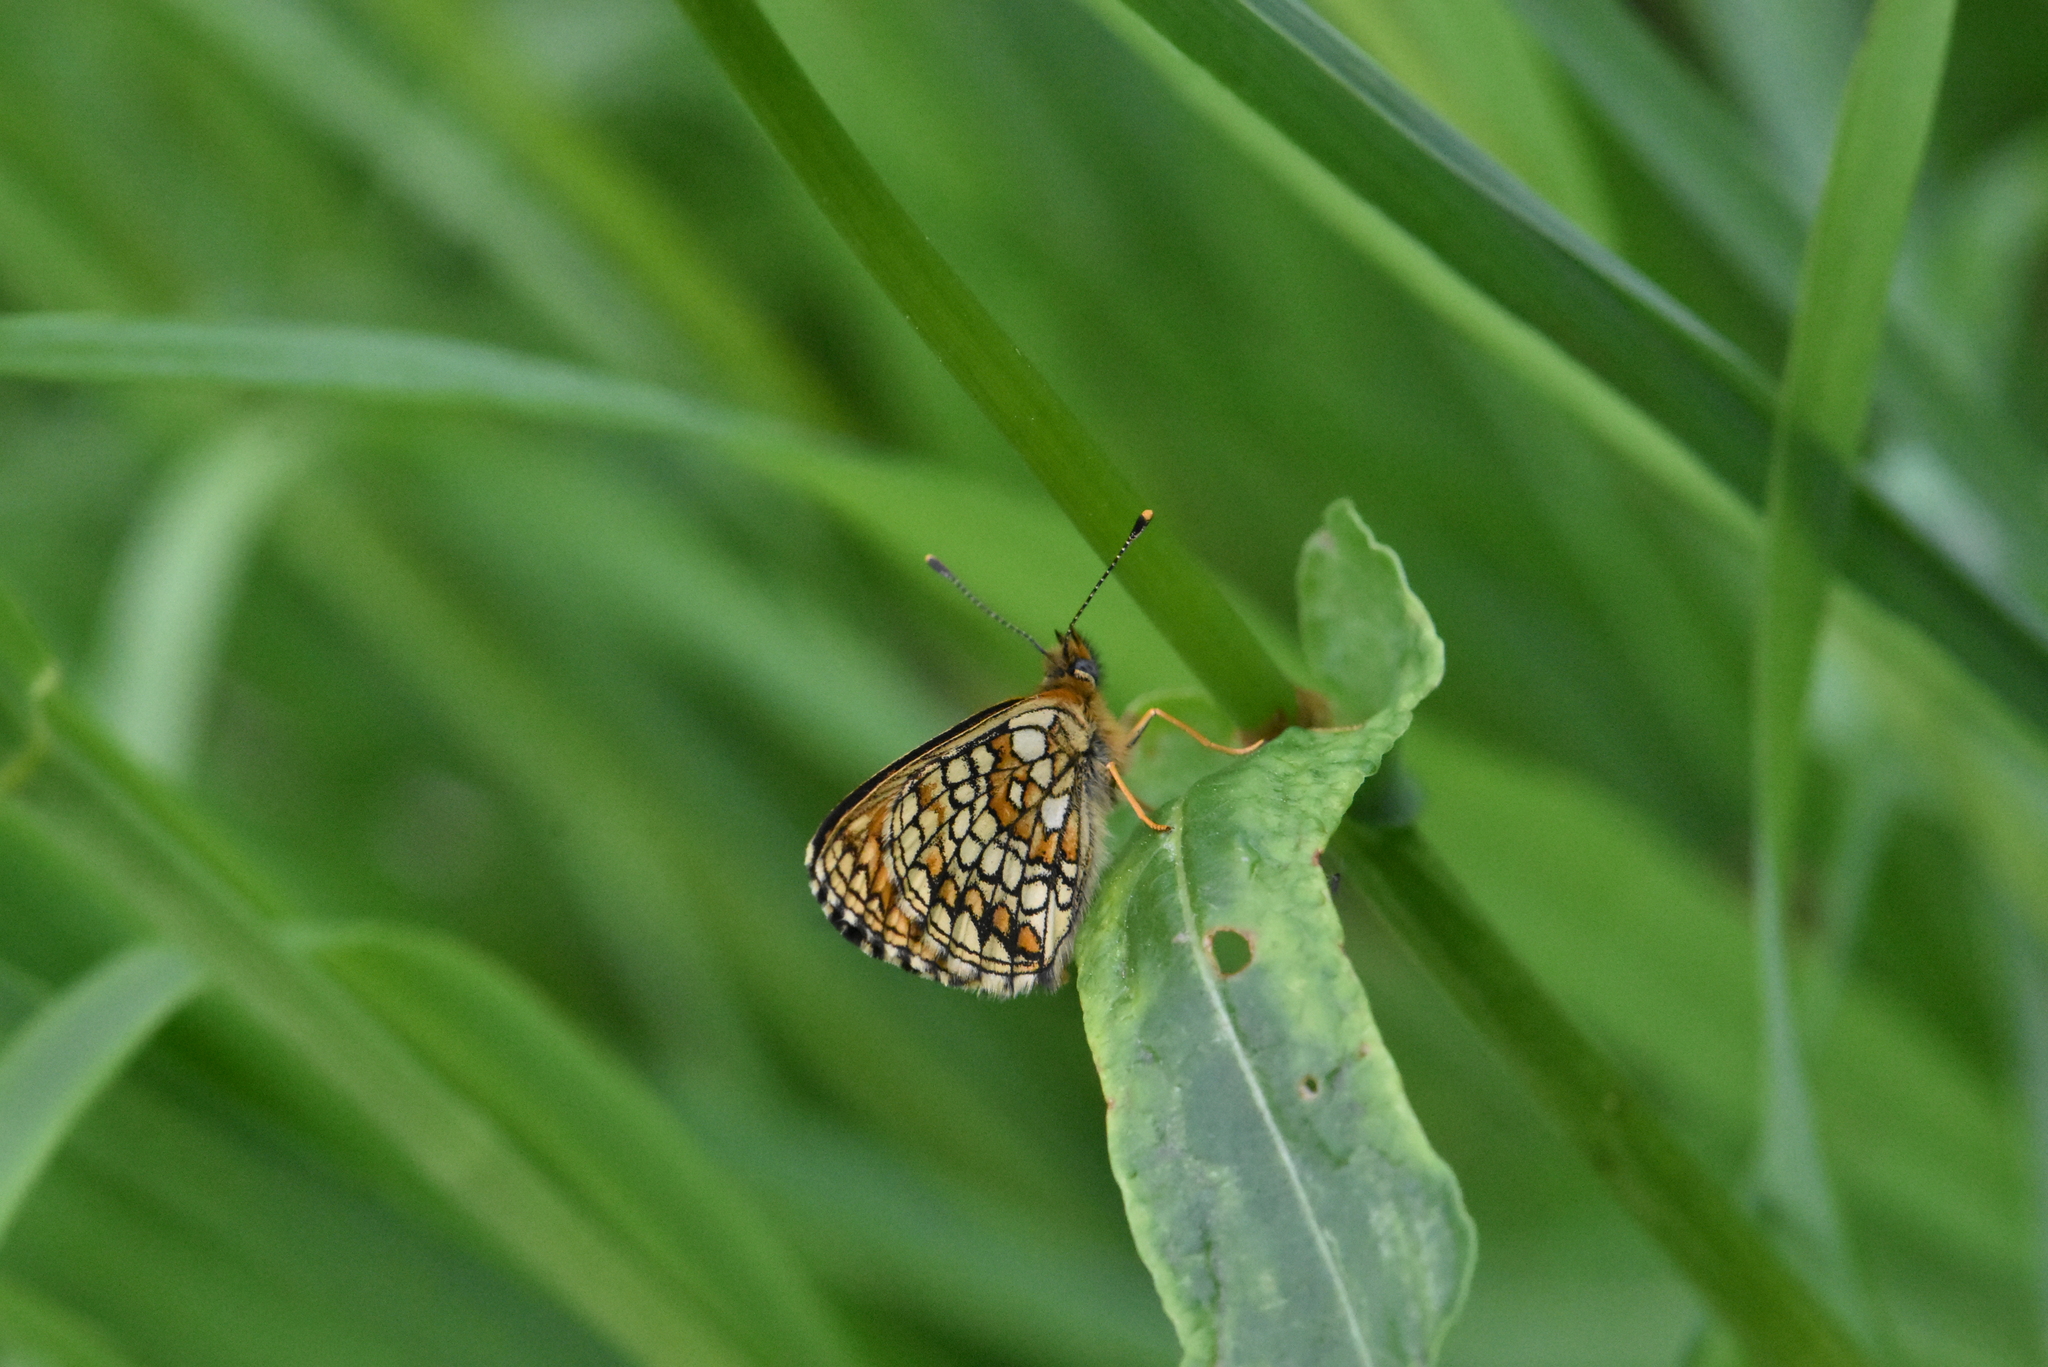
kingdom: Animalia
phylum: Arthropoda
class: Insecta
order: Lepidoptera
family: Nymphalidae
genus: Melitaea
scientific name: Melitaea athalia
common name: Heath fritillary
